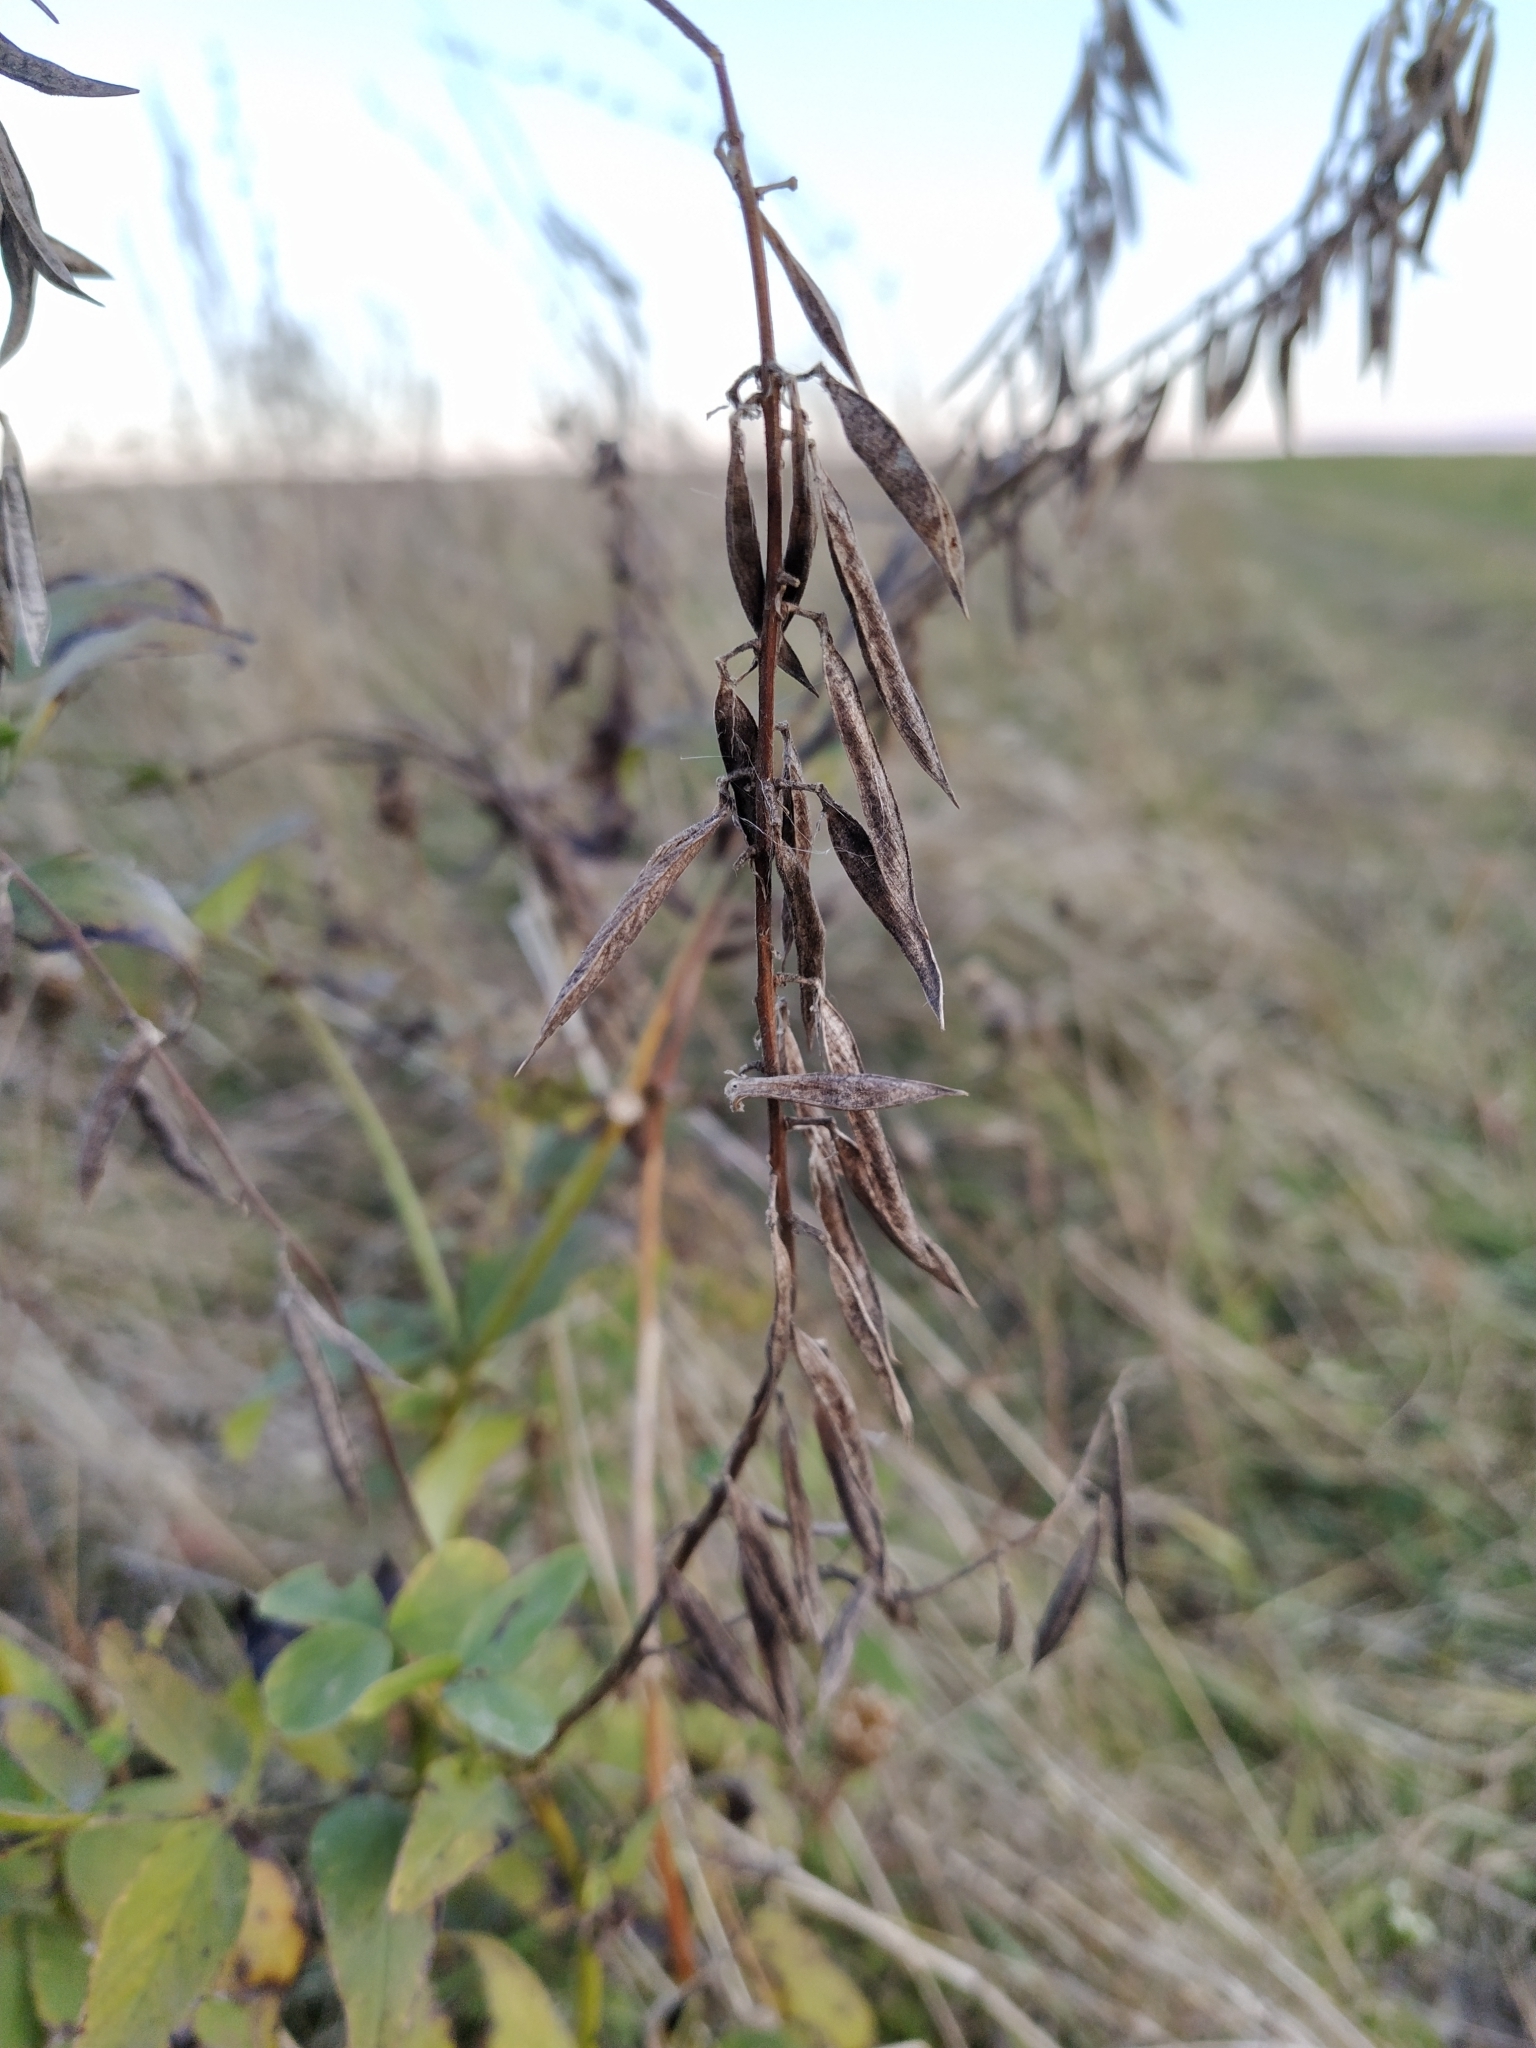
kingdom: Plantae
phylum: Tracheophyta
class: Magnoliopsida
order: Fabales
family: Fabaceae
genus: Galega
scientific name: Galega orientalis
